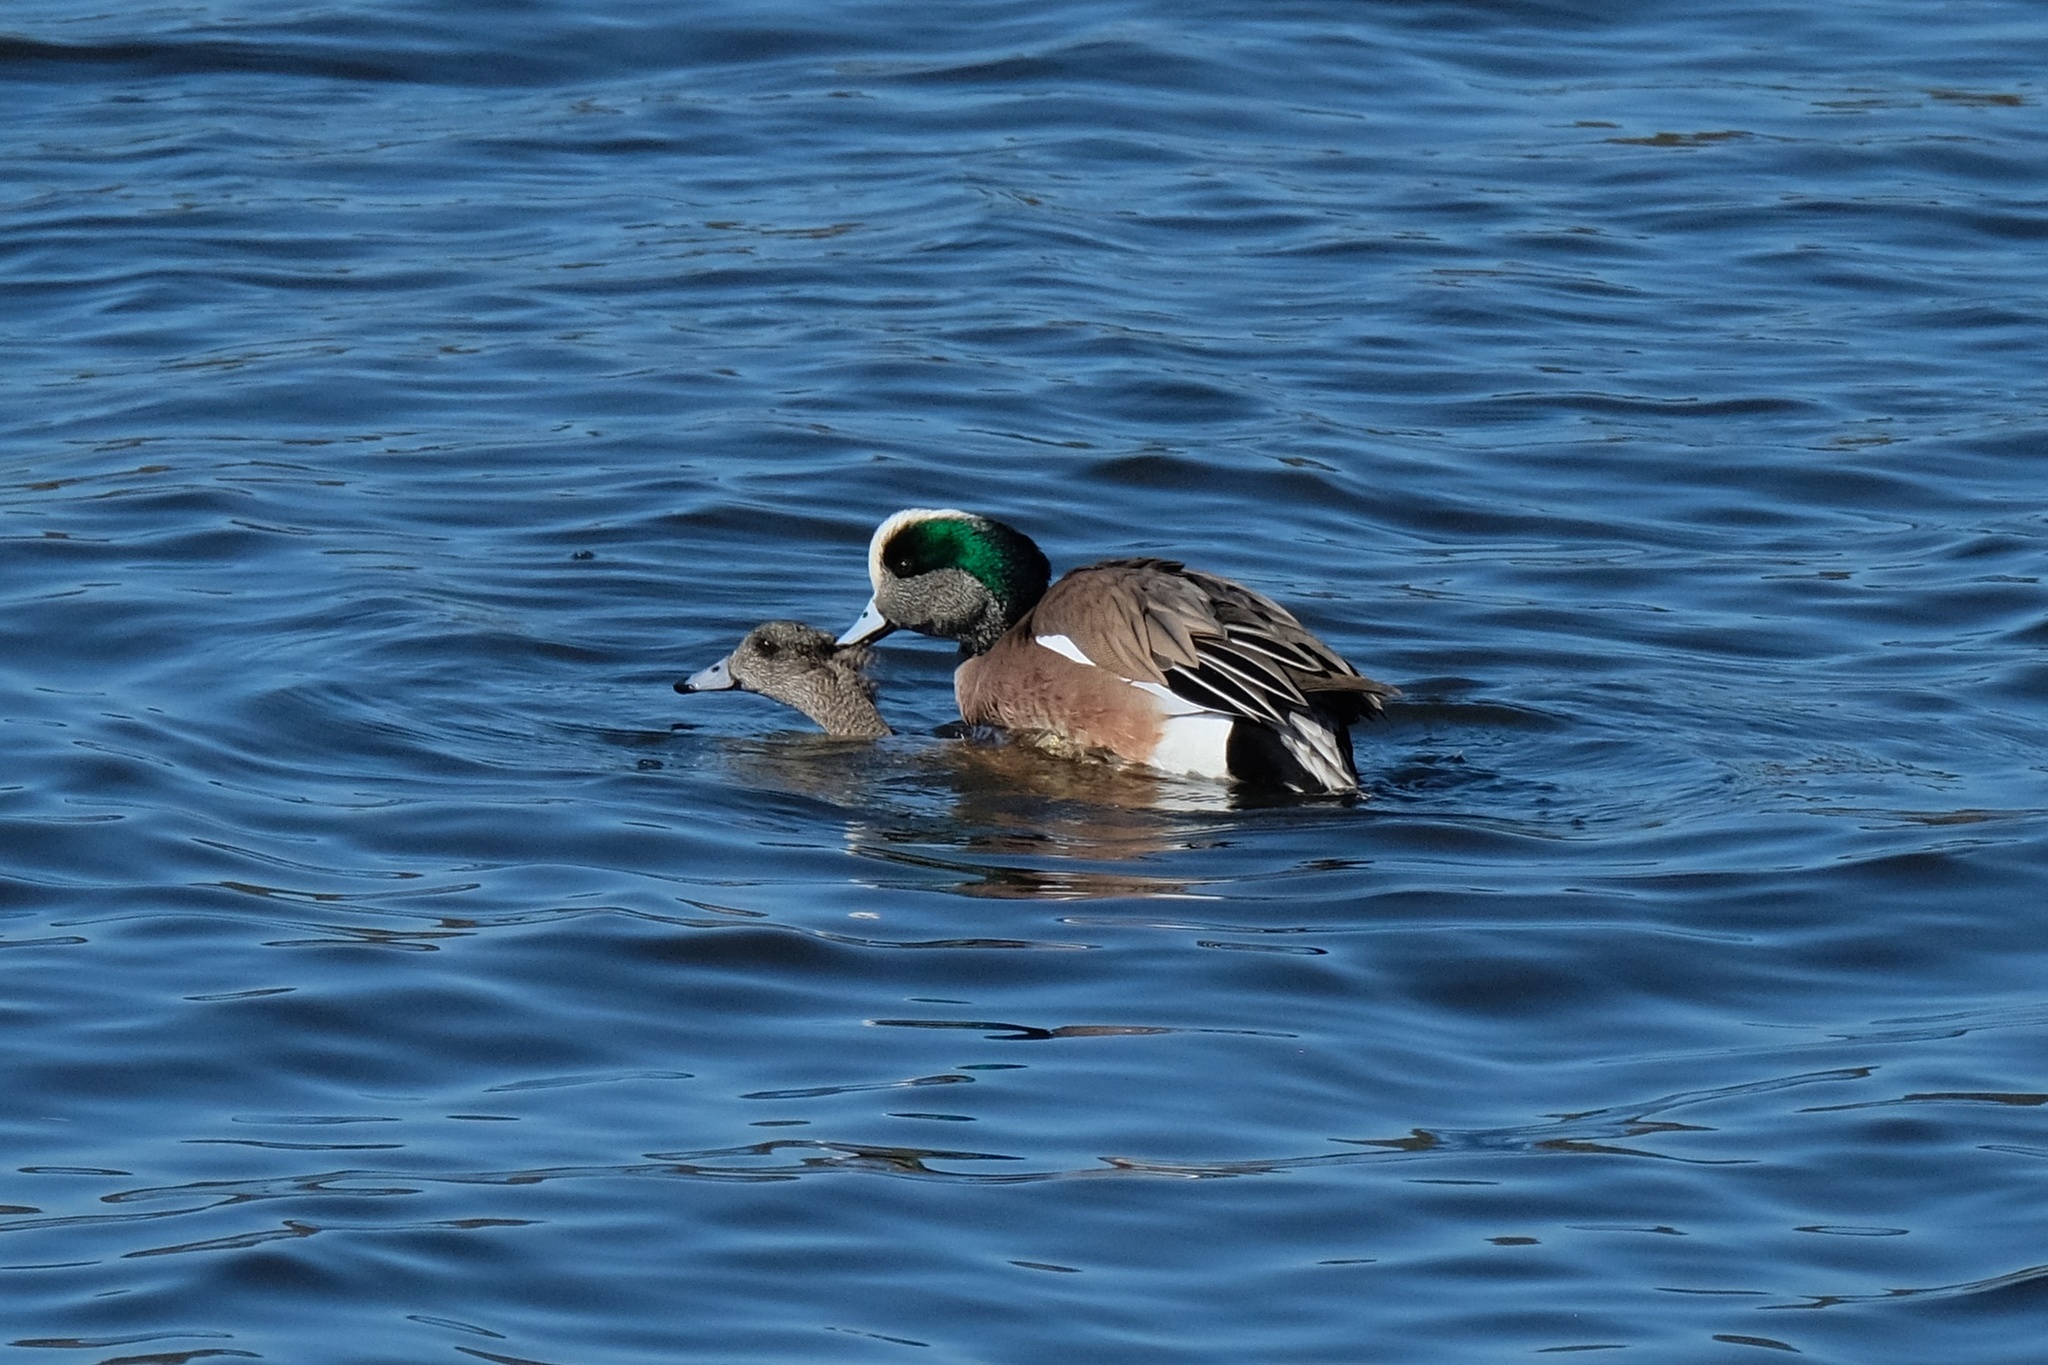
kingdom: Animalia
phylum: Chordata
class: Aves
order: Anseriformes
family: Anatidae
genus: Mareca
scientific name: Mareca americana
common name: American wigeon
